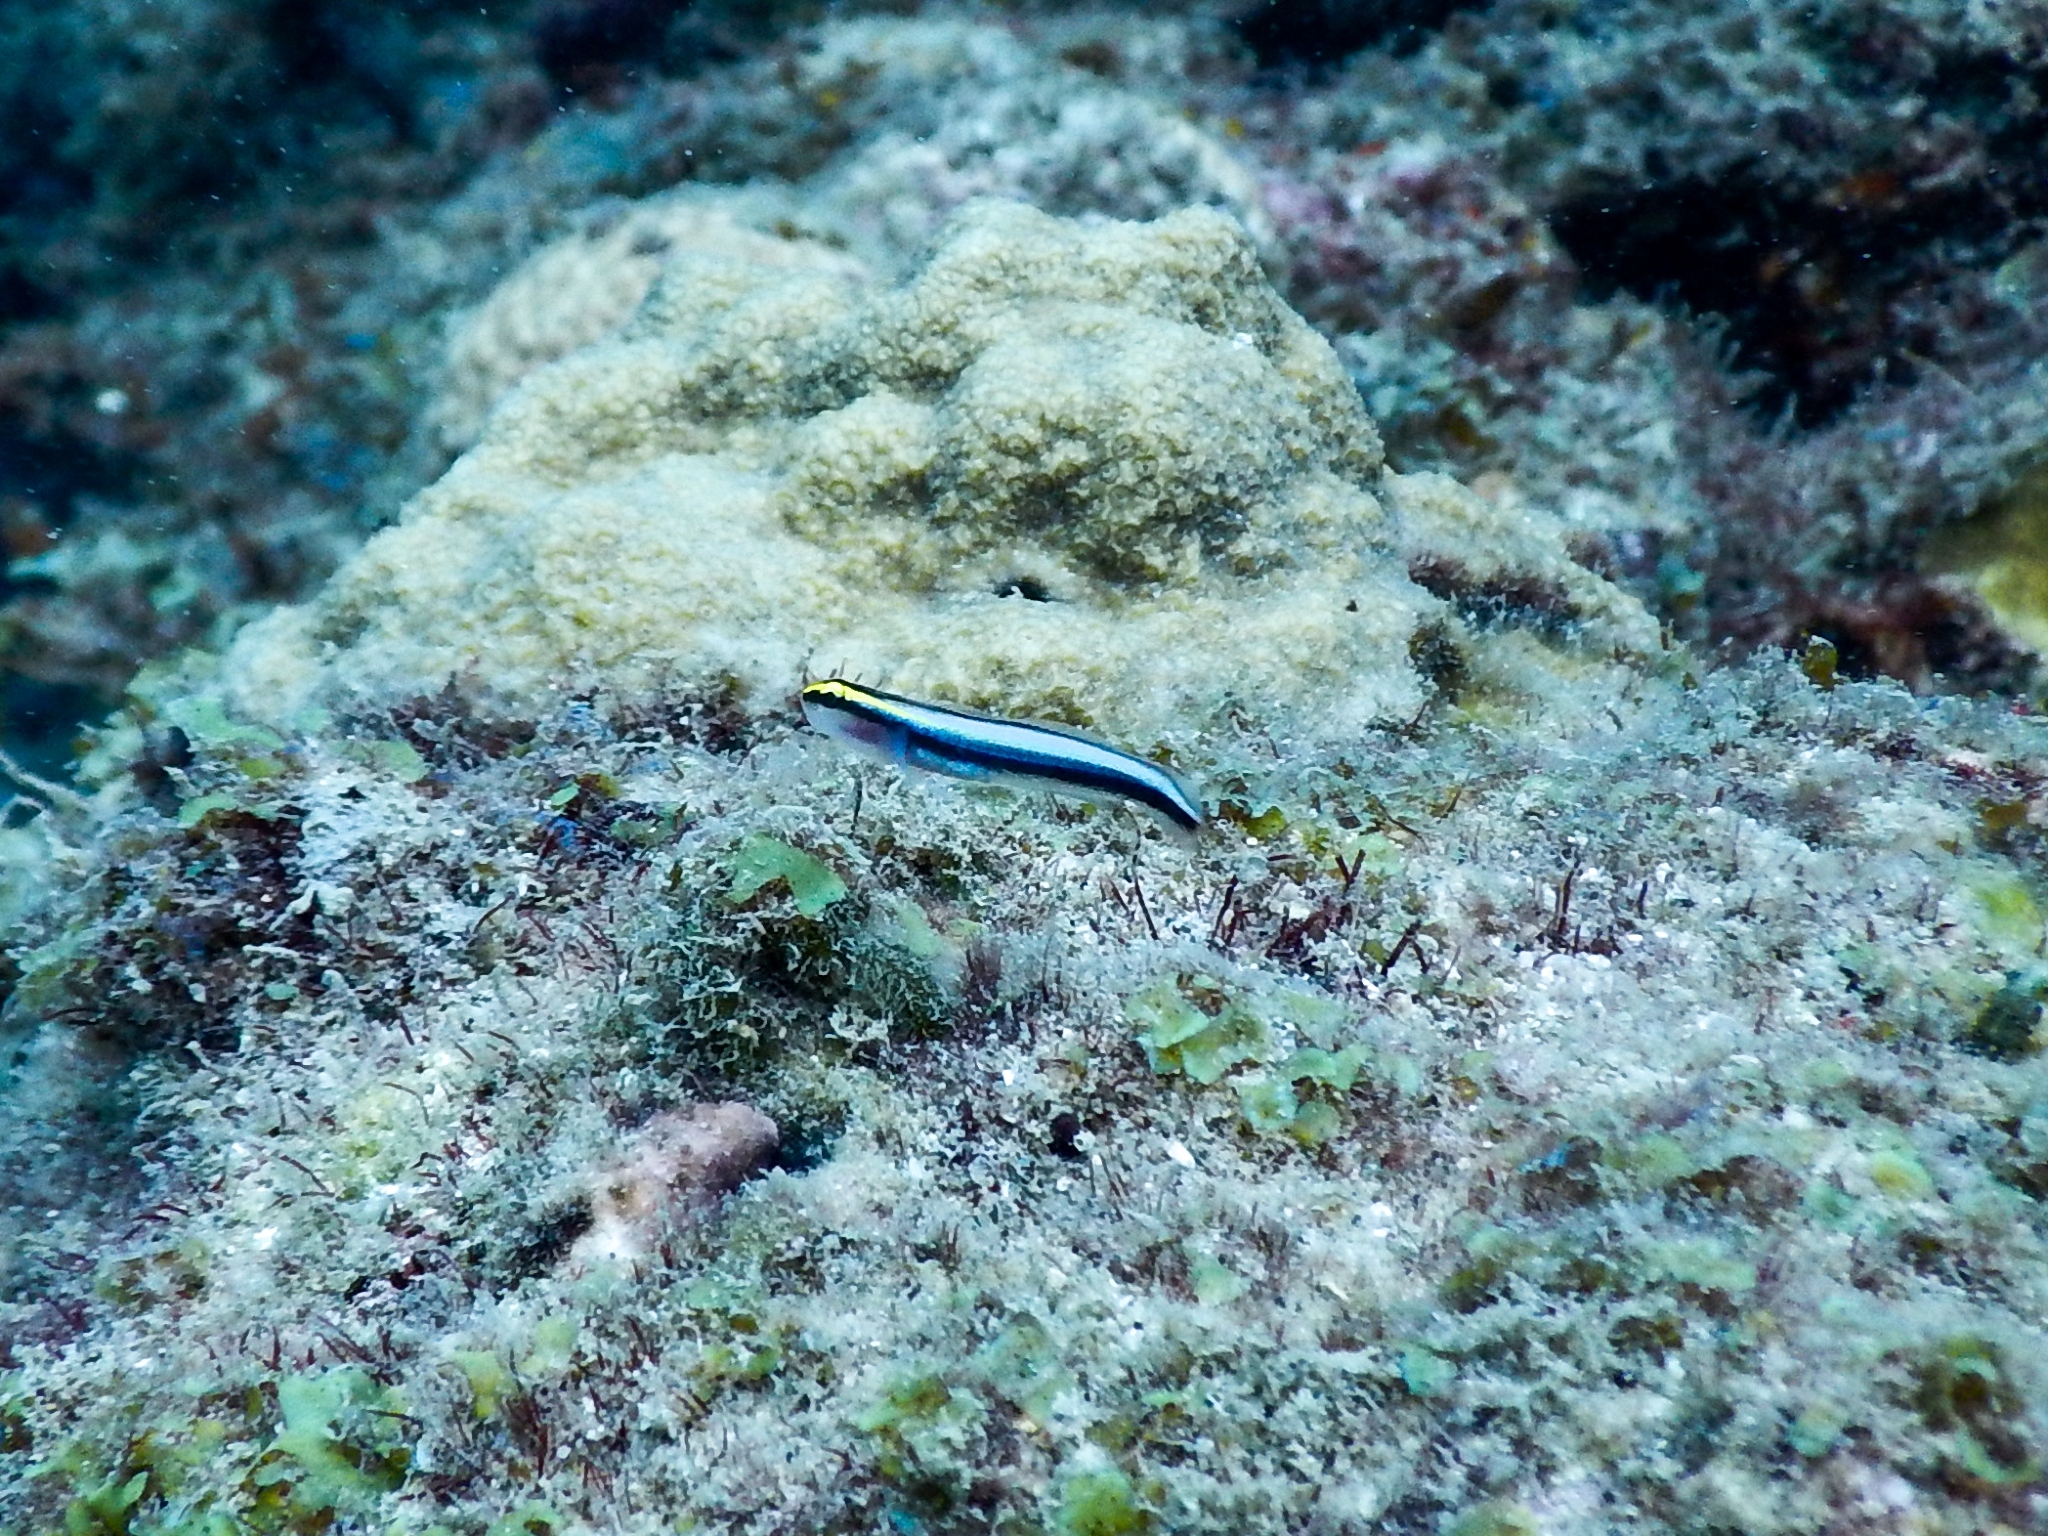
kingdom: Animalia
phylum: Chordata
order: Perciformes
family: Gobiidae
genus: Elacatinus
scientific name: Elacatinus evelynae
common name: Sharknose goby
